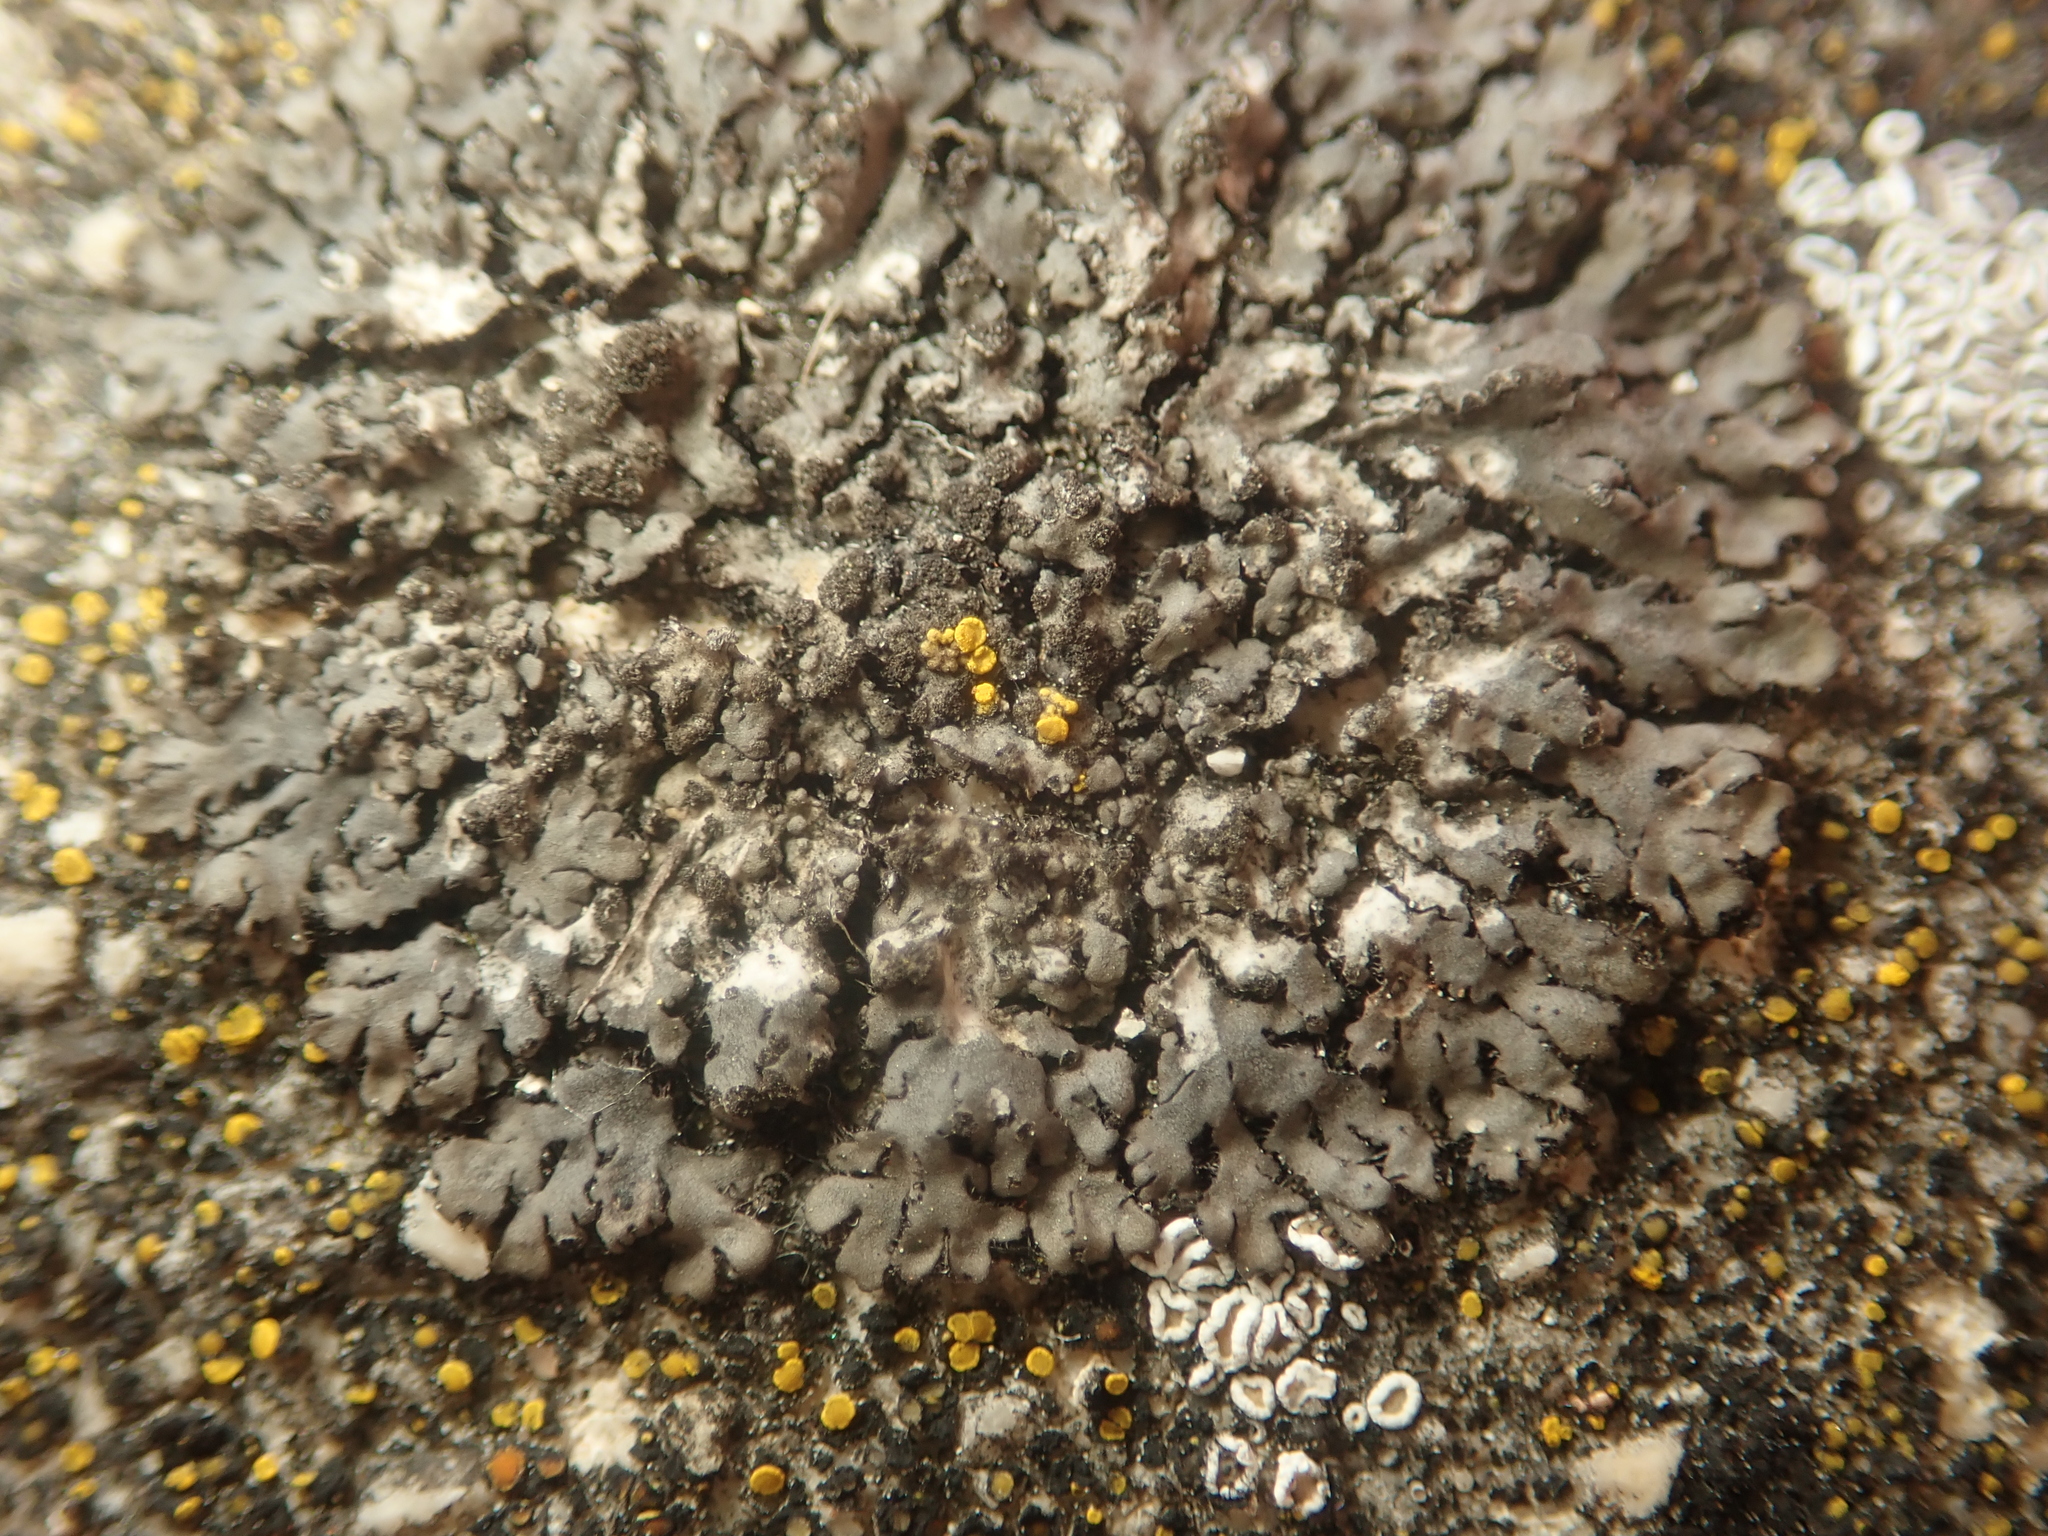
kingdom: Fungi
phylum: Ascomycota
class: Lecanoromycetes
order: Caliciales
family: Physciaceae
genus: Phaeophyscia
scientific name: Phaeophyscia orbicularis
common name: Mealy shadow lichen
